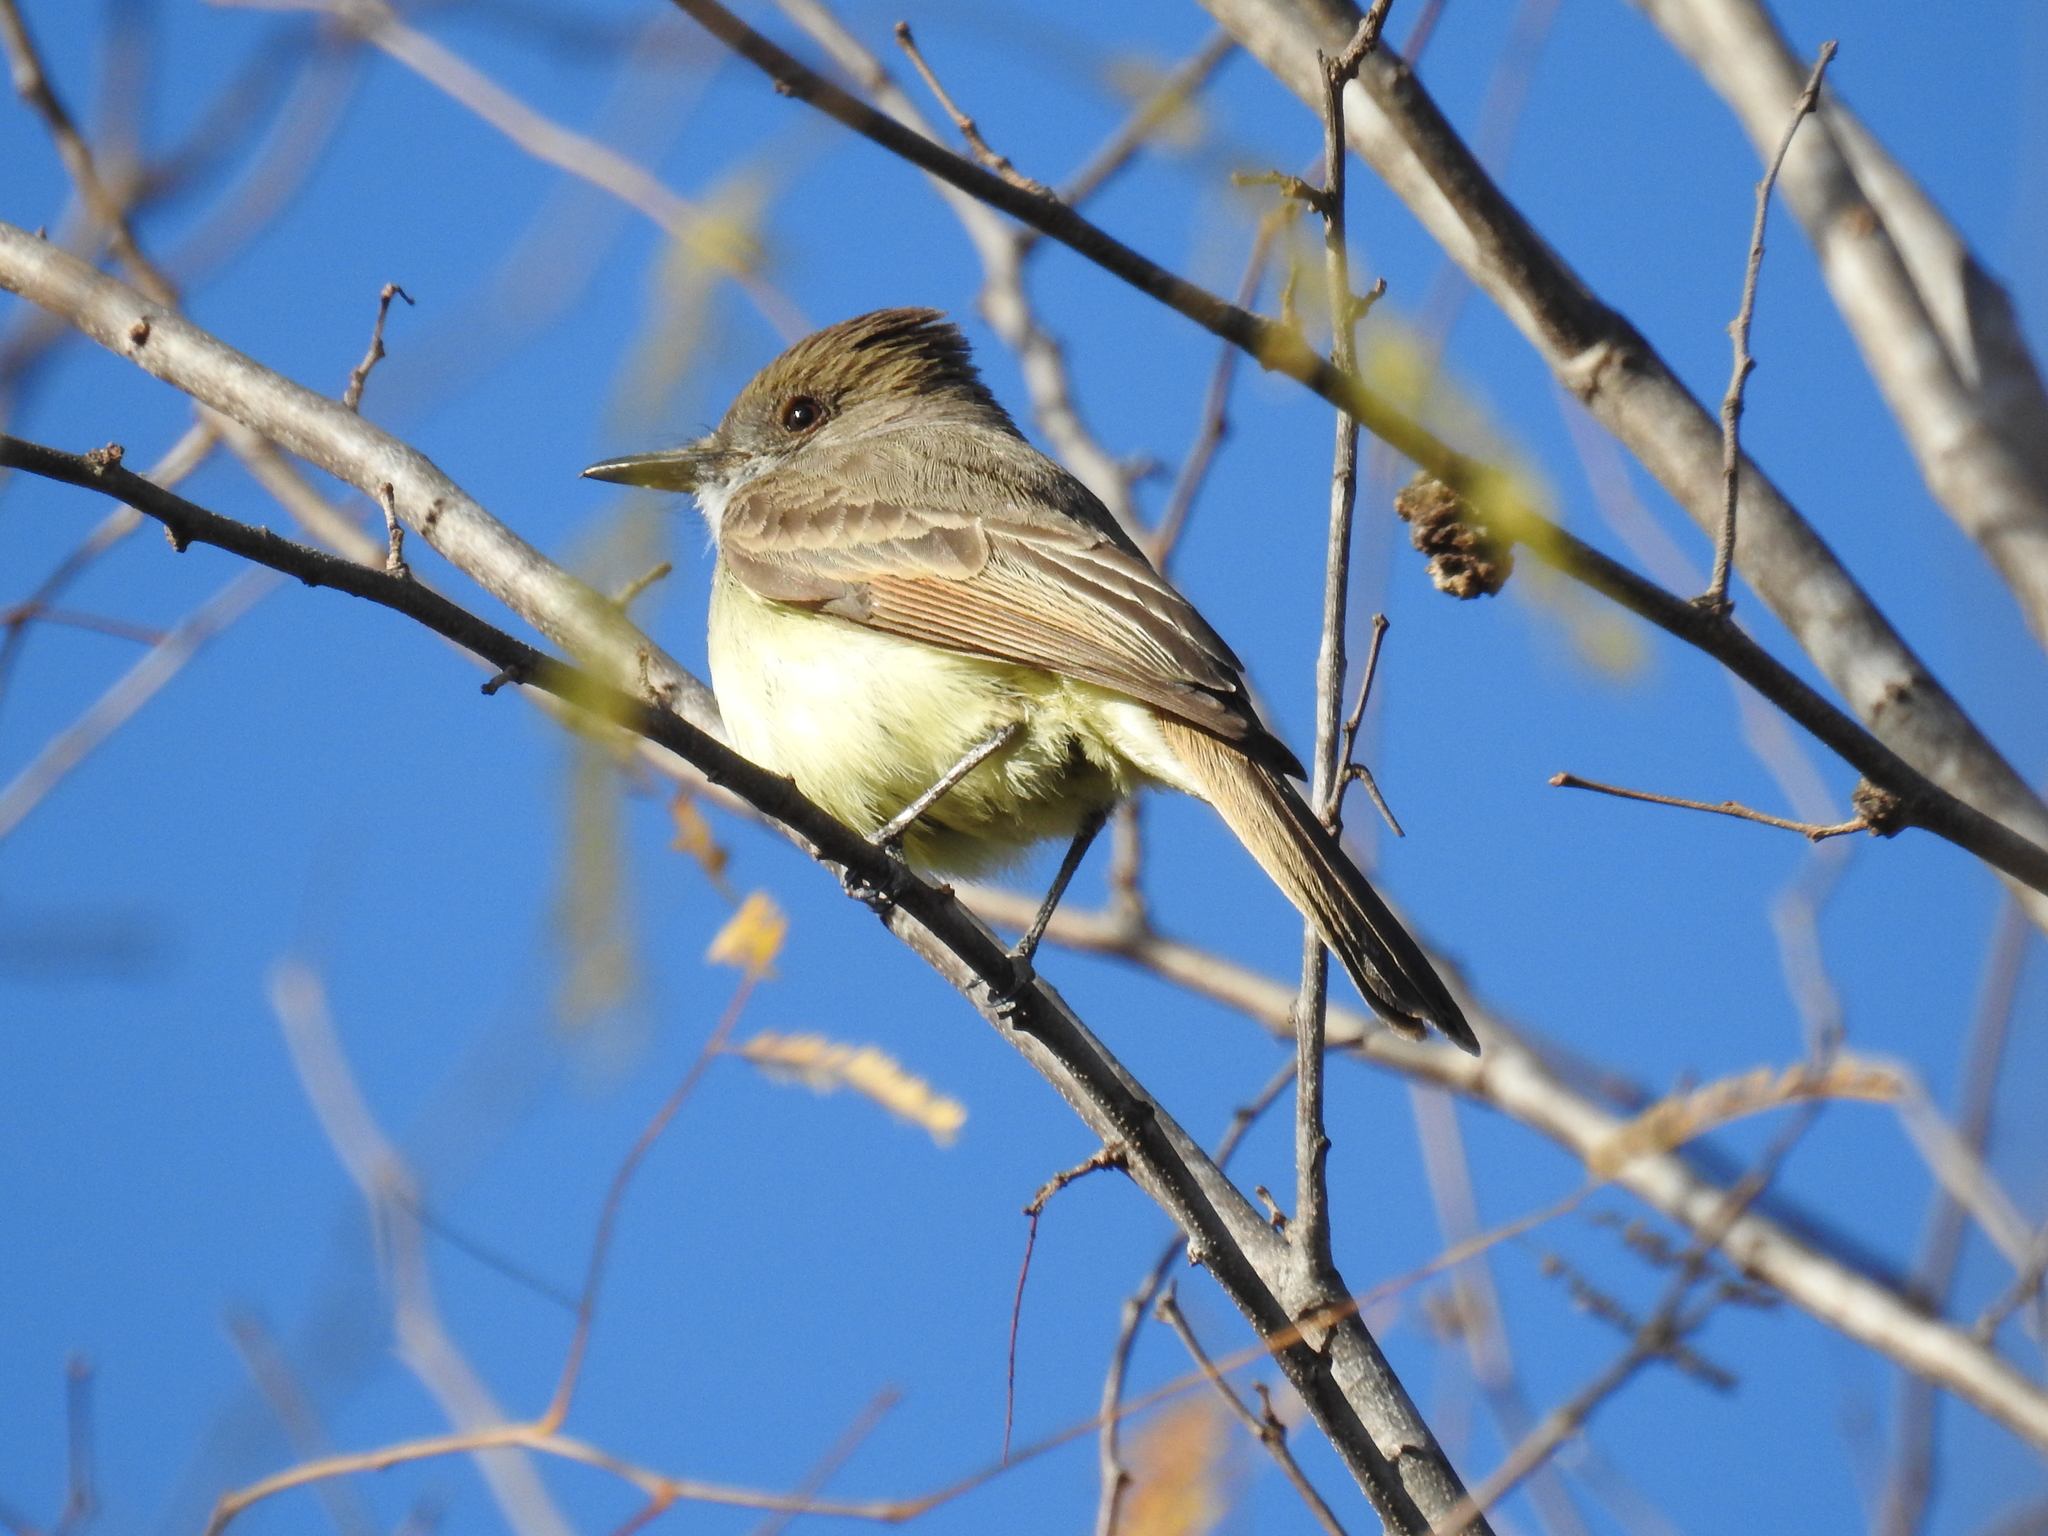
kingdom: Animalia
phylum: Chordata
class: Aves
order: Passeriformes
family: Tyrannidae
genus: Myiarchus
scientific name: Myiarchus nuttingi
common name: Nutting's flycatcher
